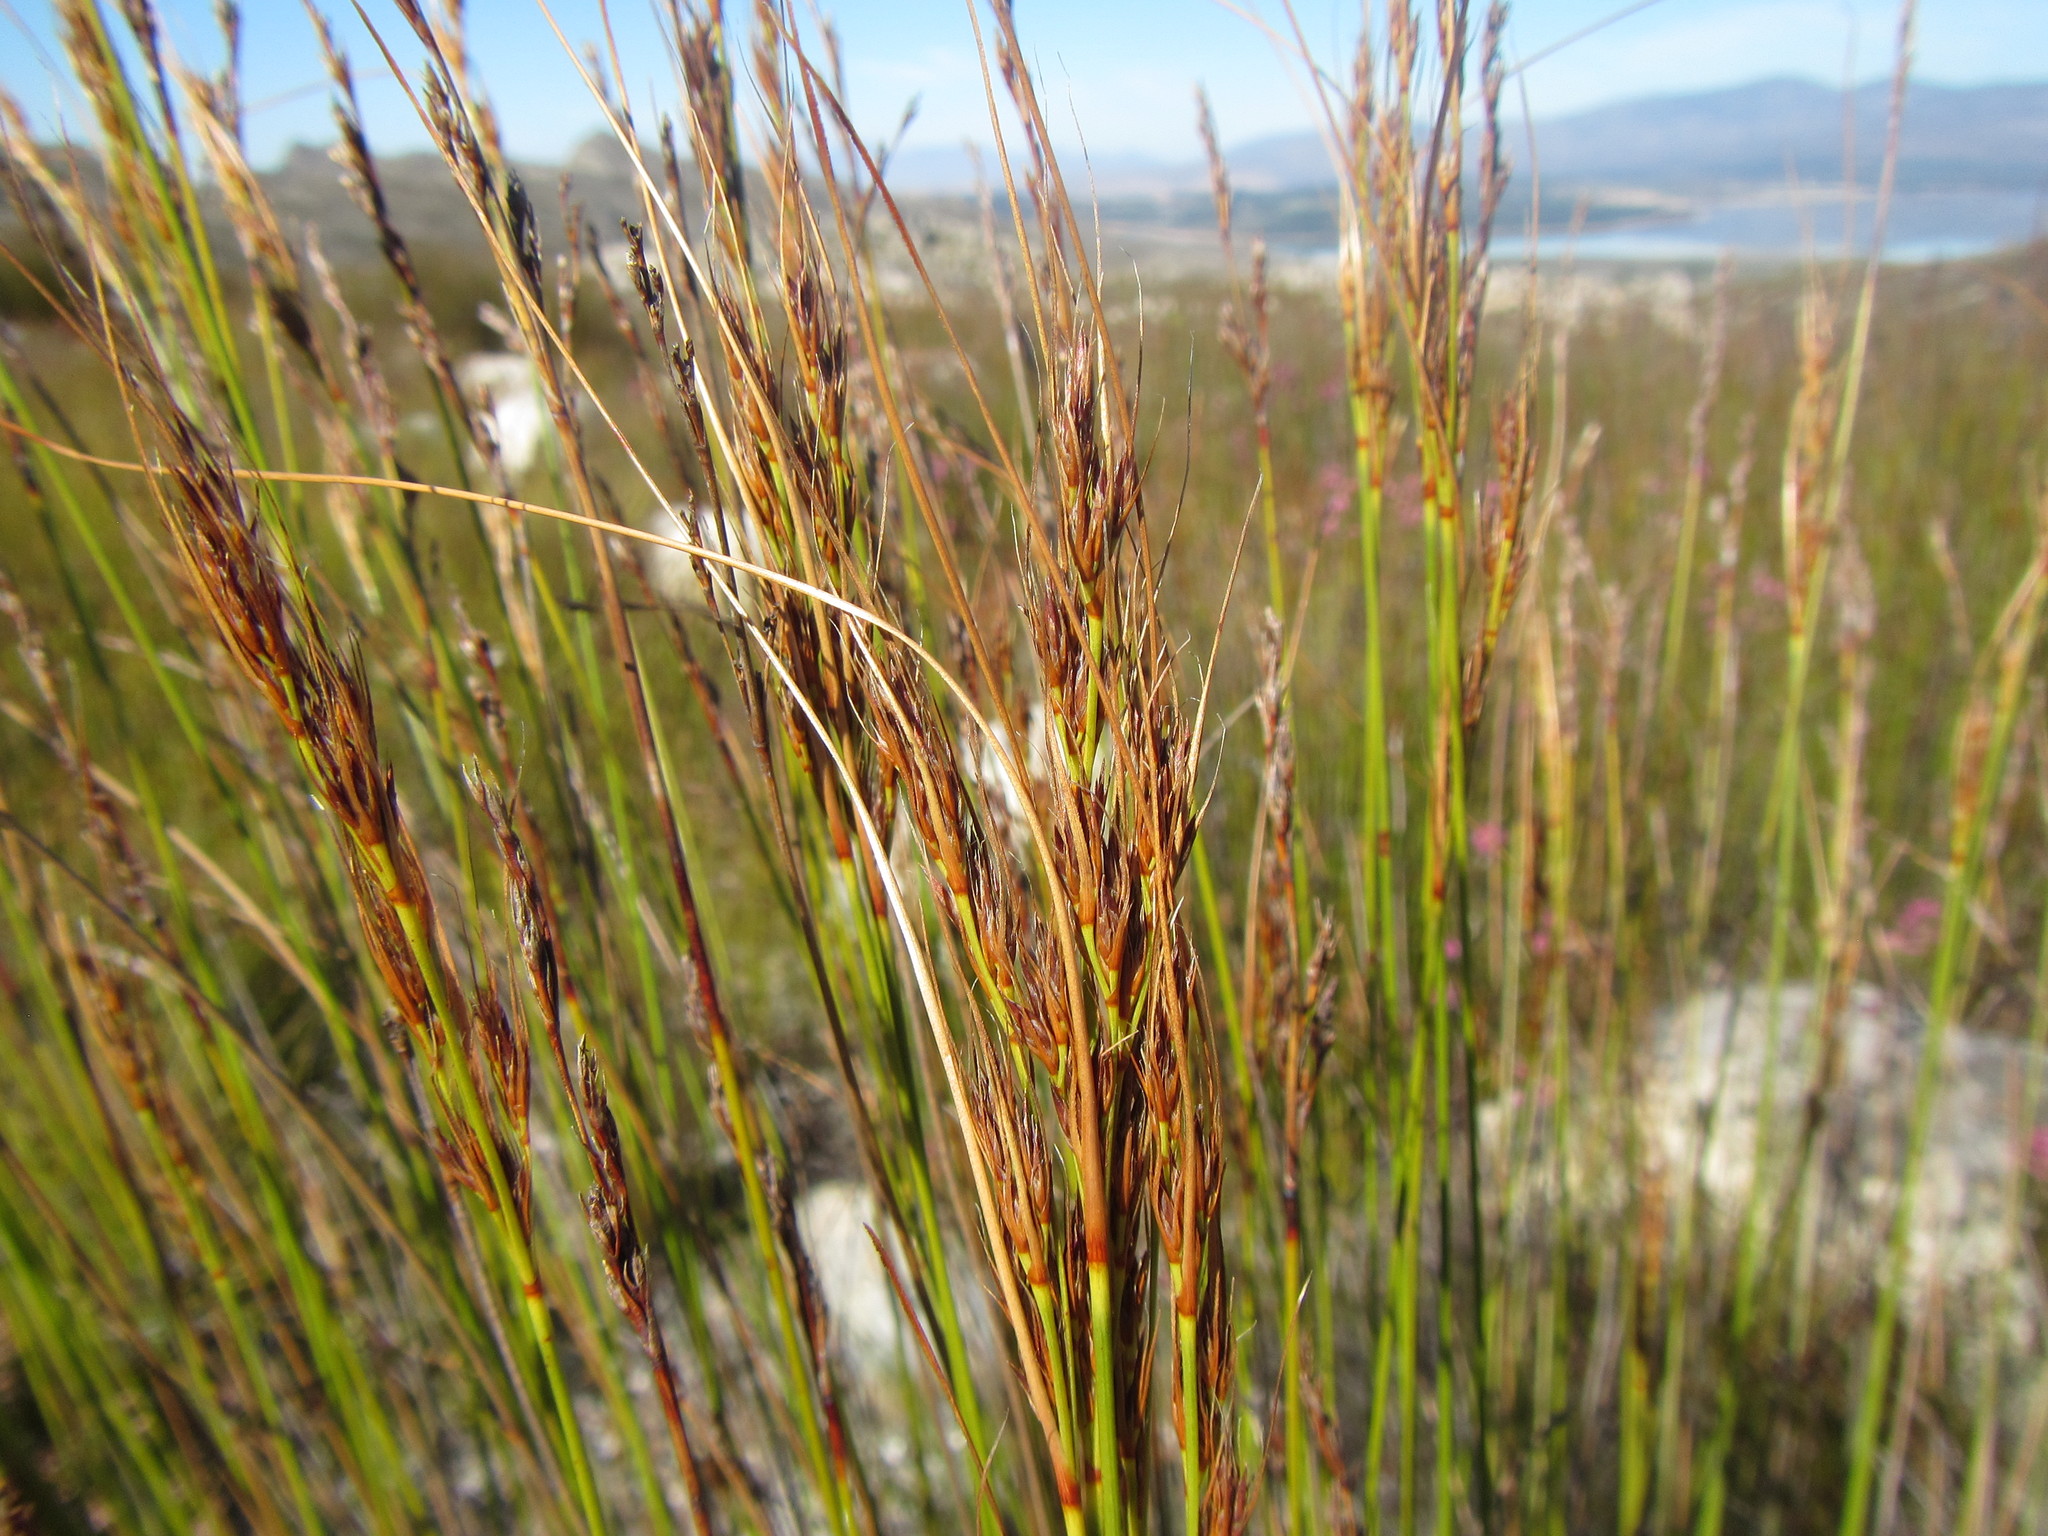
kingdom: Plantae
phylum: Tracheophyta
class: Liliopsida
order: Poales
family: Cyperaceae
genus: Schoenus
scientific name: Schoenus crassus
